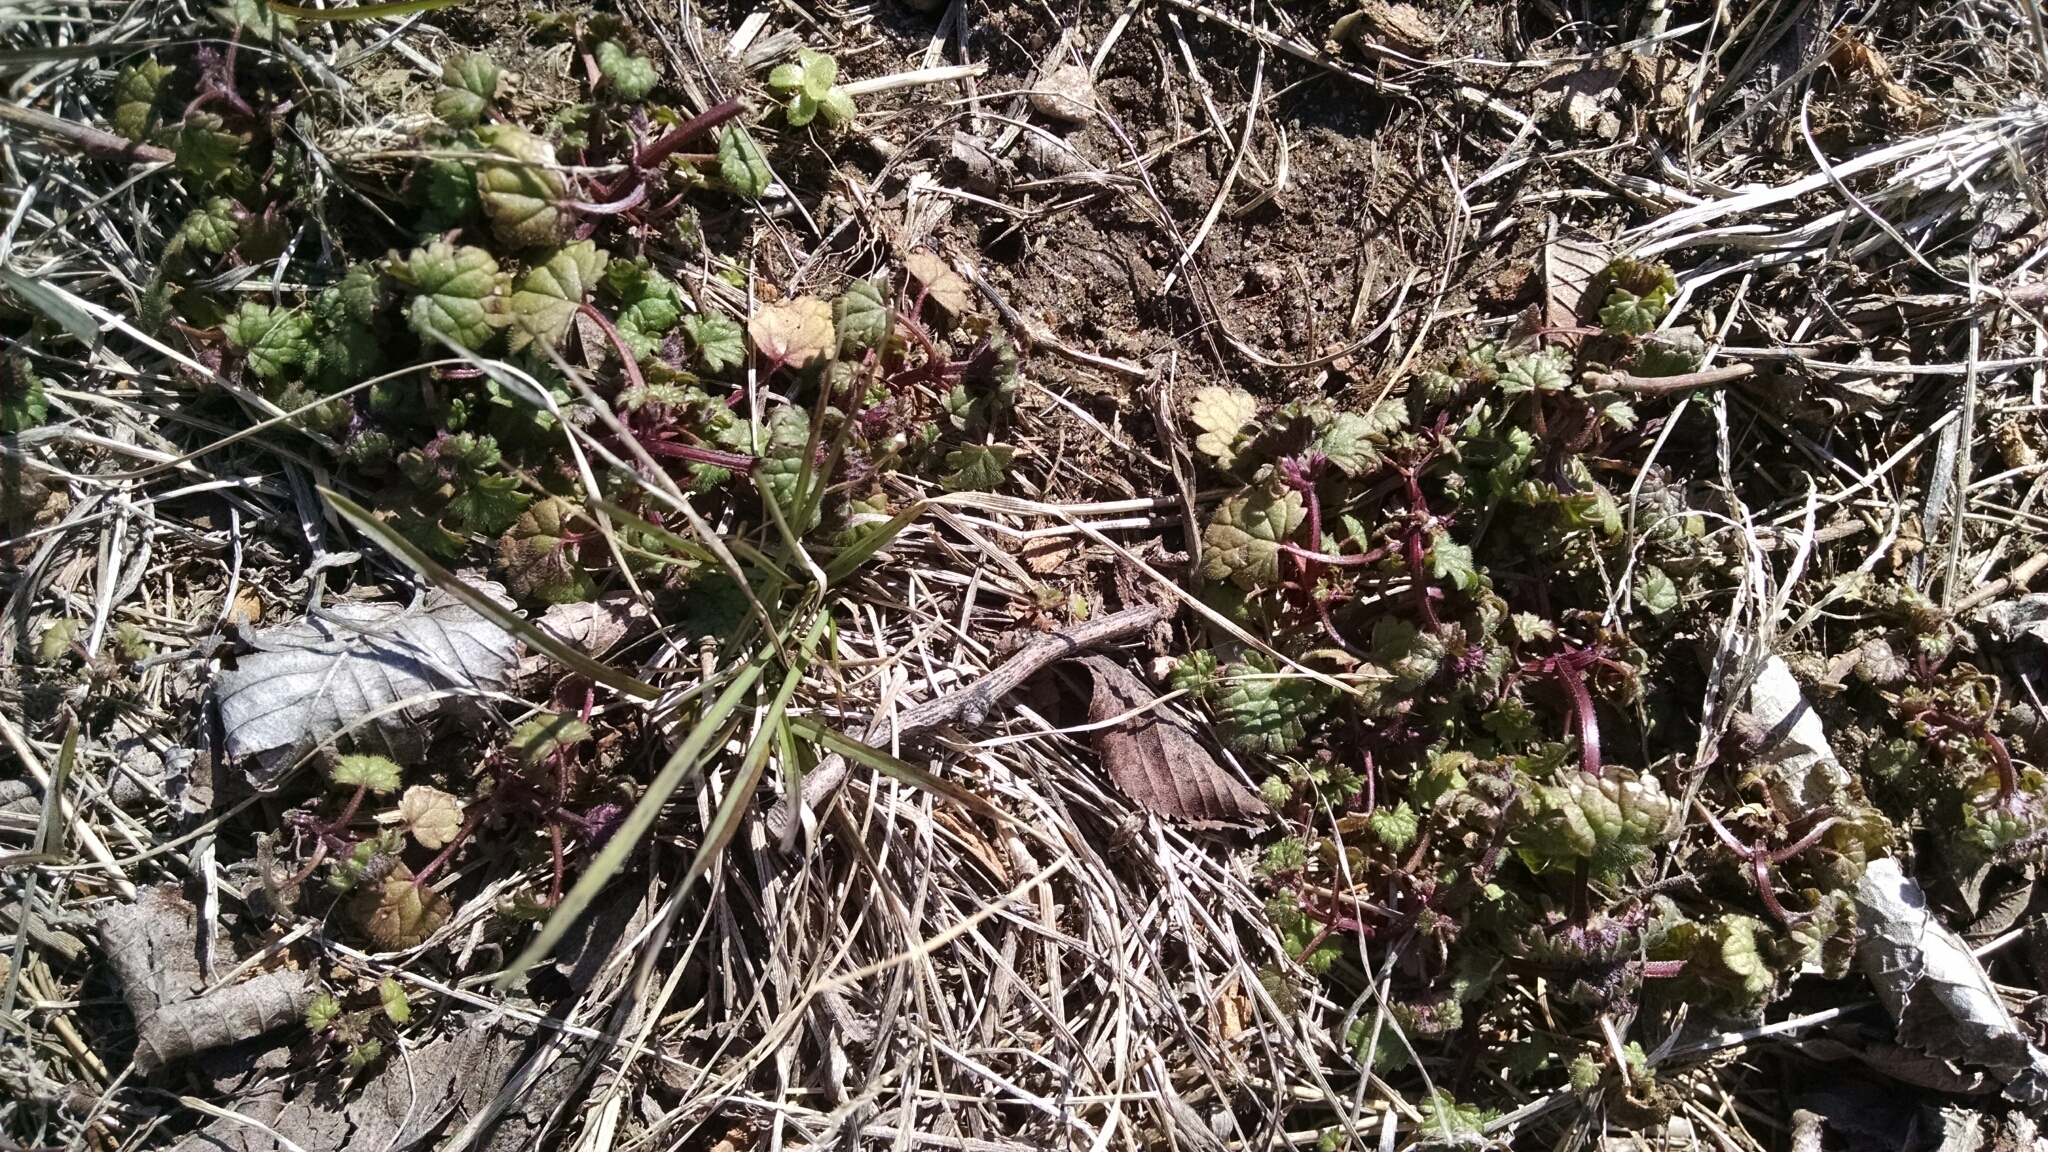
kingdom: Plantae
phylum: Tracheophyta
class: Magnoliopsida
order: Lamiales
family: Lamiaceae
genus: Lamium
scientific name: Lamium amplexicaule
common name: Henbit dead-nettle
